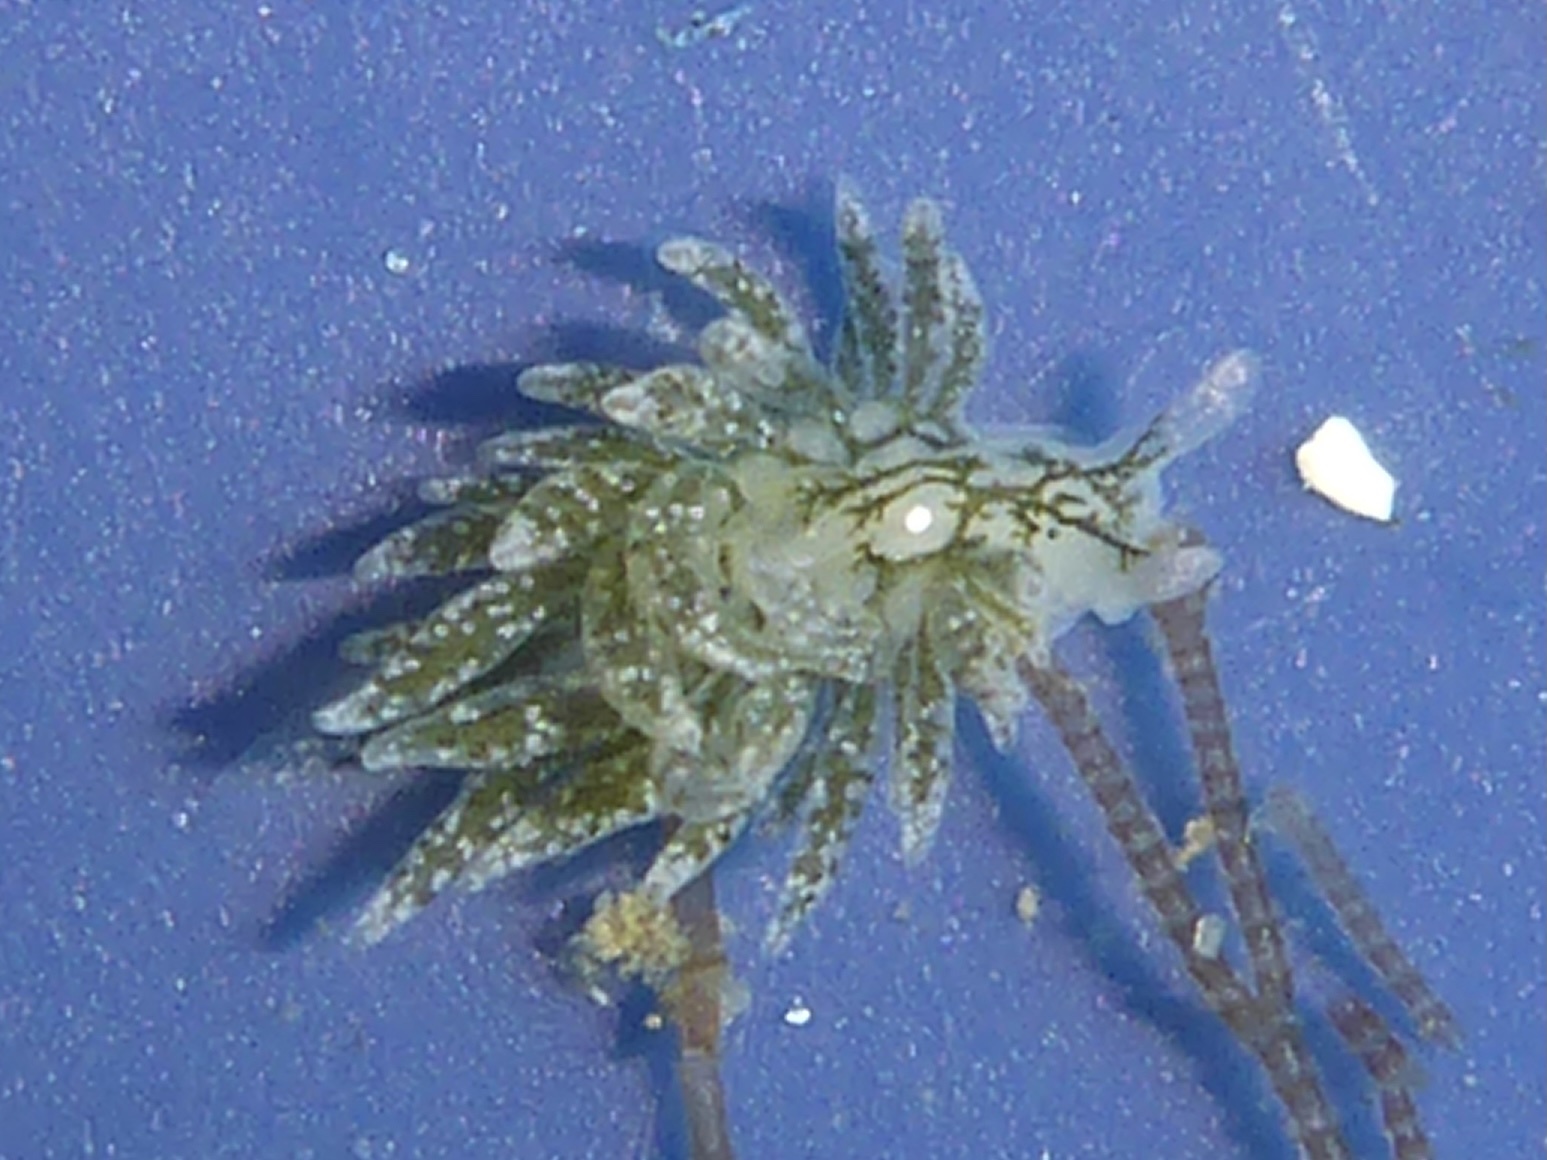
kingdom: Animalia
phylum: Mollusca
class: Gastropoda
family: Limapontiidae
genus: Placida
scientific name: Placida dendritica
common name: Dendritic nudibranch
